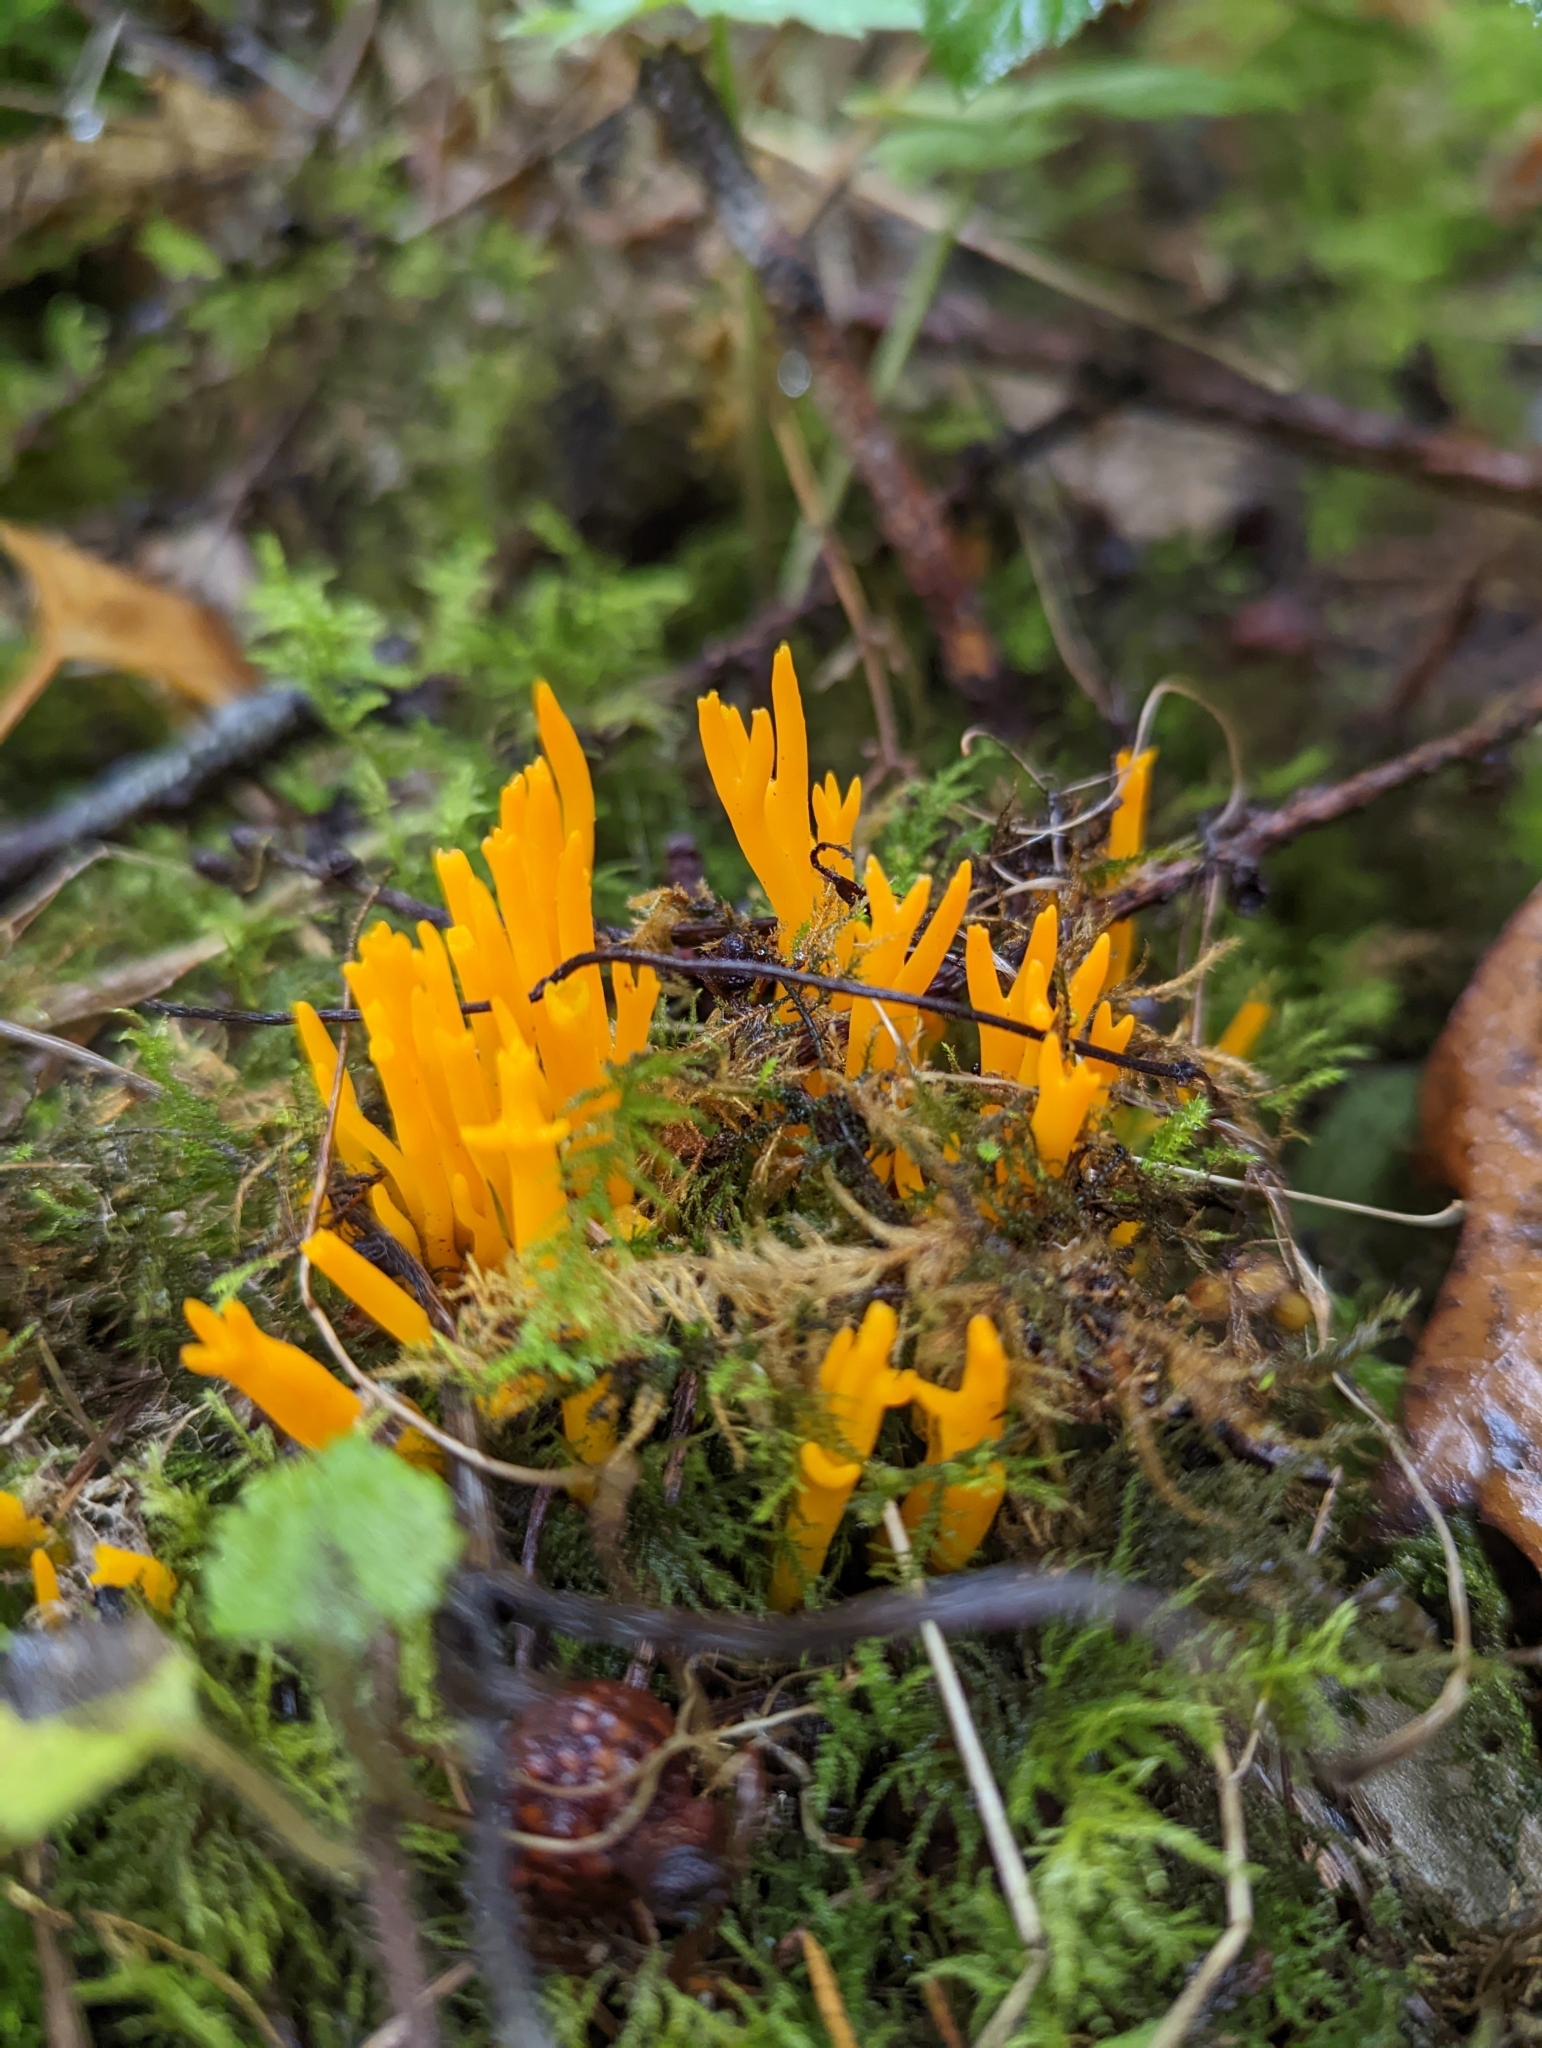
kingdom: Fungi
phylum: Basidiomycota
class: Dacrymycetes
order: Dacrymycetales
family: Dacrymycetaceae
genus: Calocera
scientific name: Calocera viscosa
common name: Yellow stagshorn
